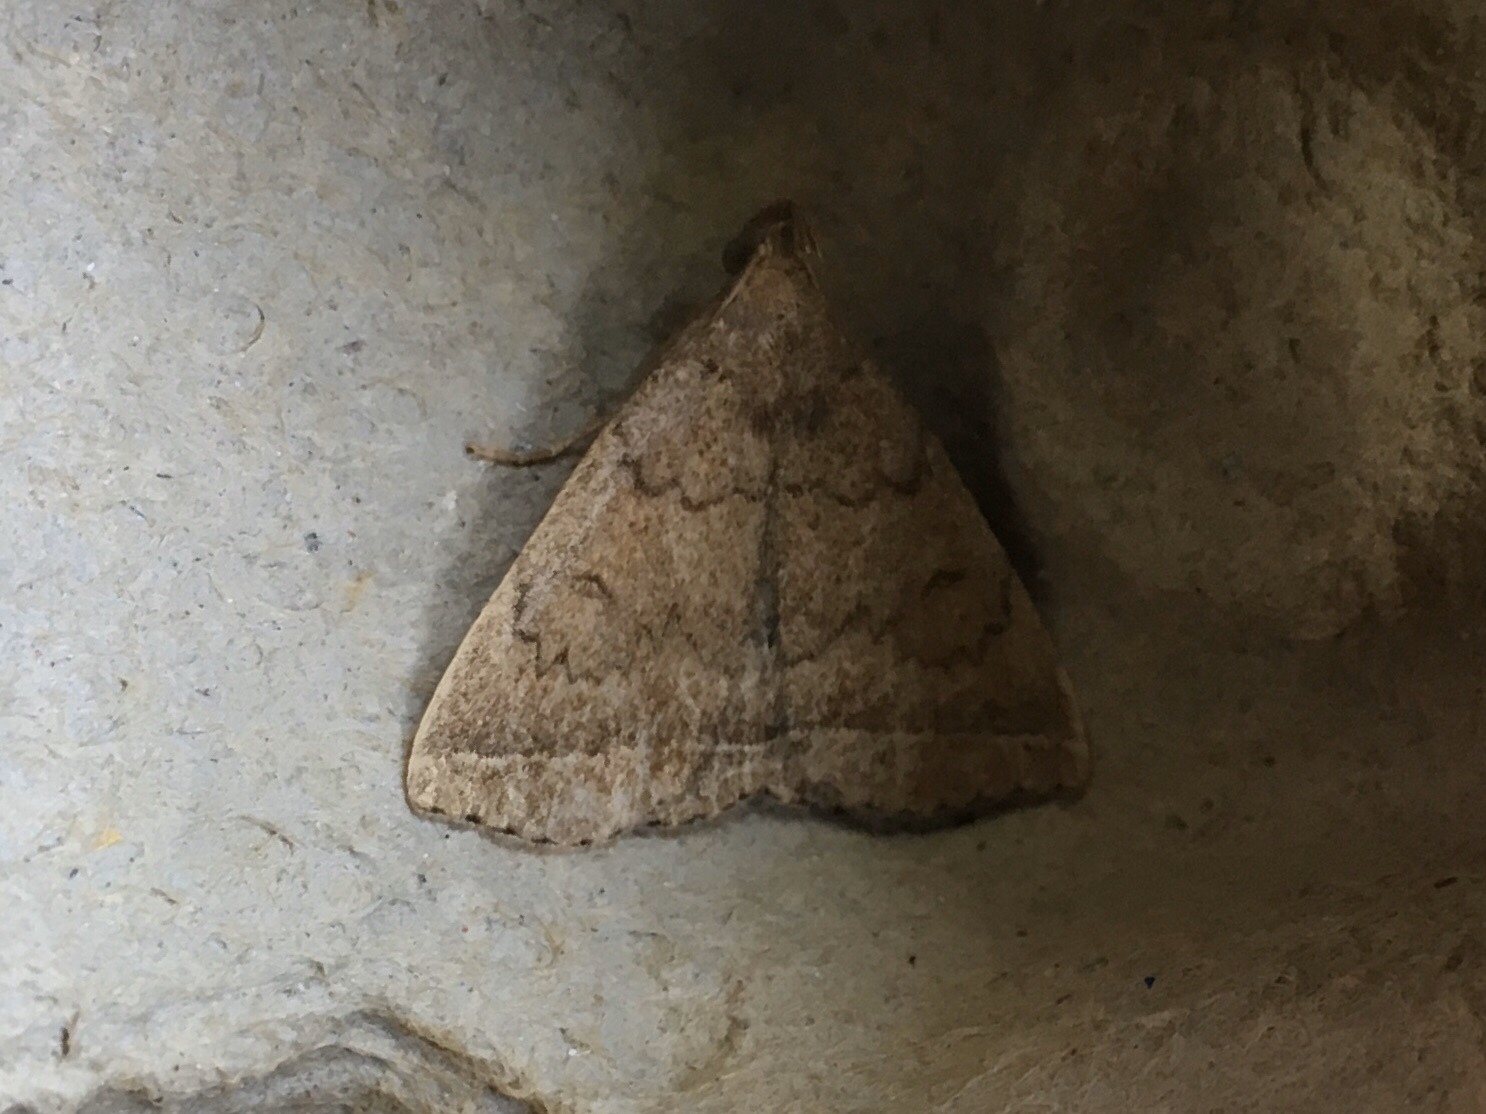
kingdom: Animalia
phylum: Arthropoda
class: Insecta
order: Lepidoptera
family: Erebidae
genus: Zanclognatha
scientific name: Zanclognatha jacchusalis
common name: Yellowish zanclognatha
